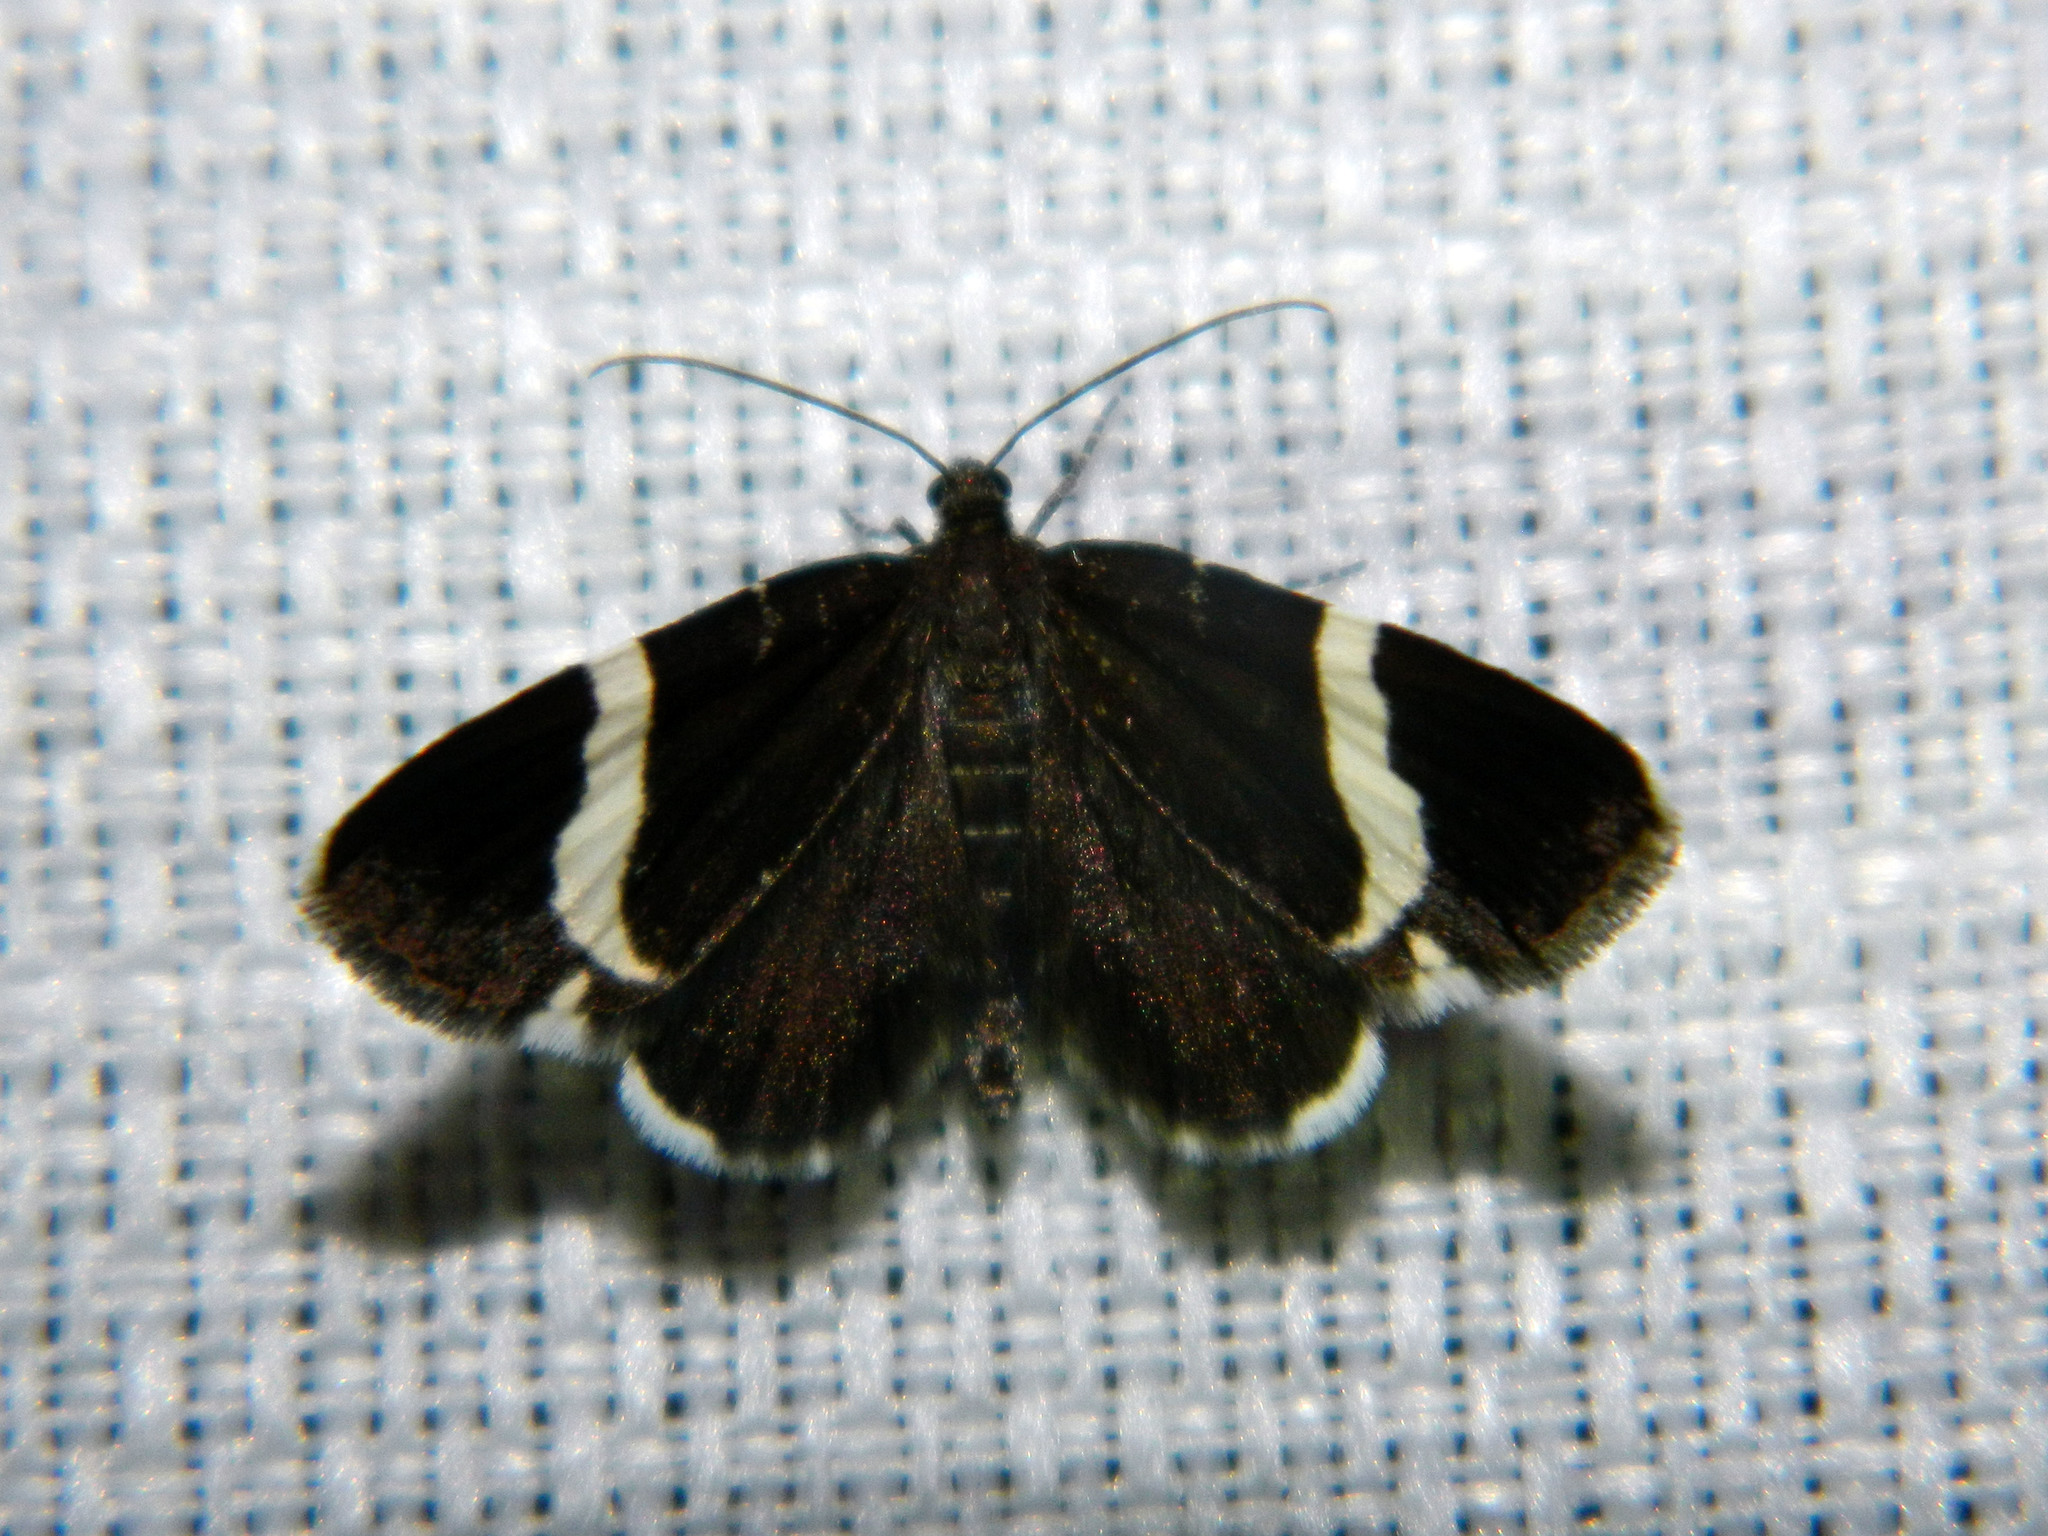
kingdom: Animalia
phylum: Arthropoda
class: Insecta
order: Lepidoptera
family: Geometridae
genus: Trichodezia
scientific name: Trichodezia albovittata
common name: White striped black
